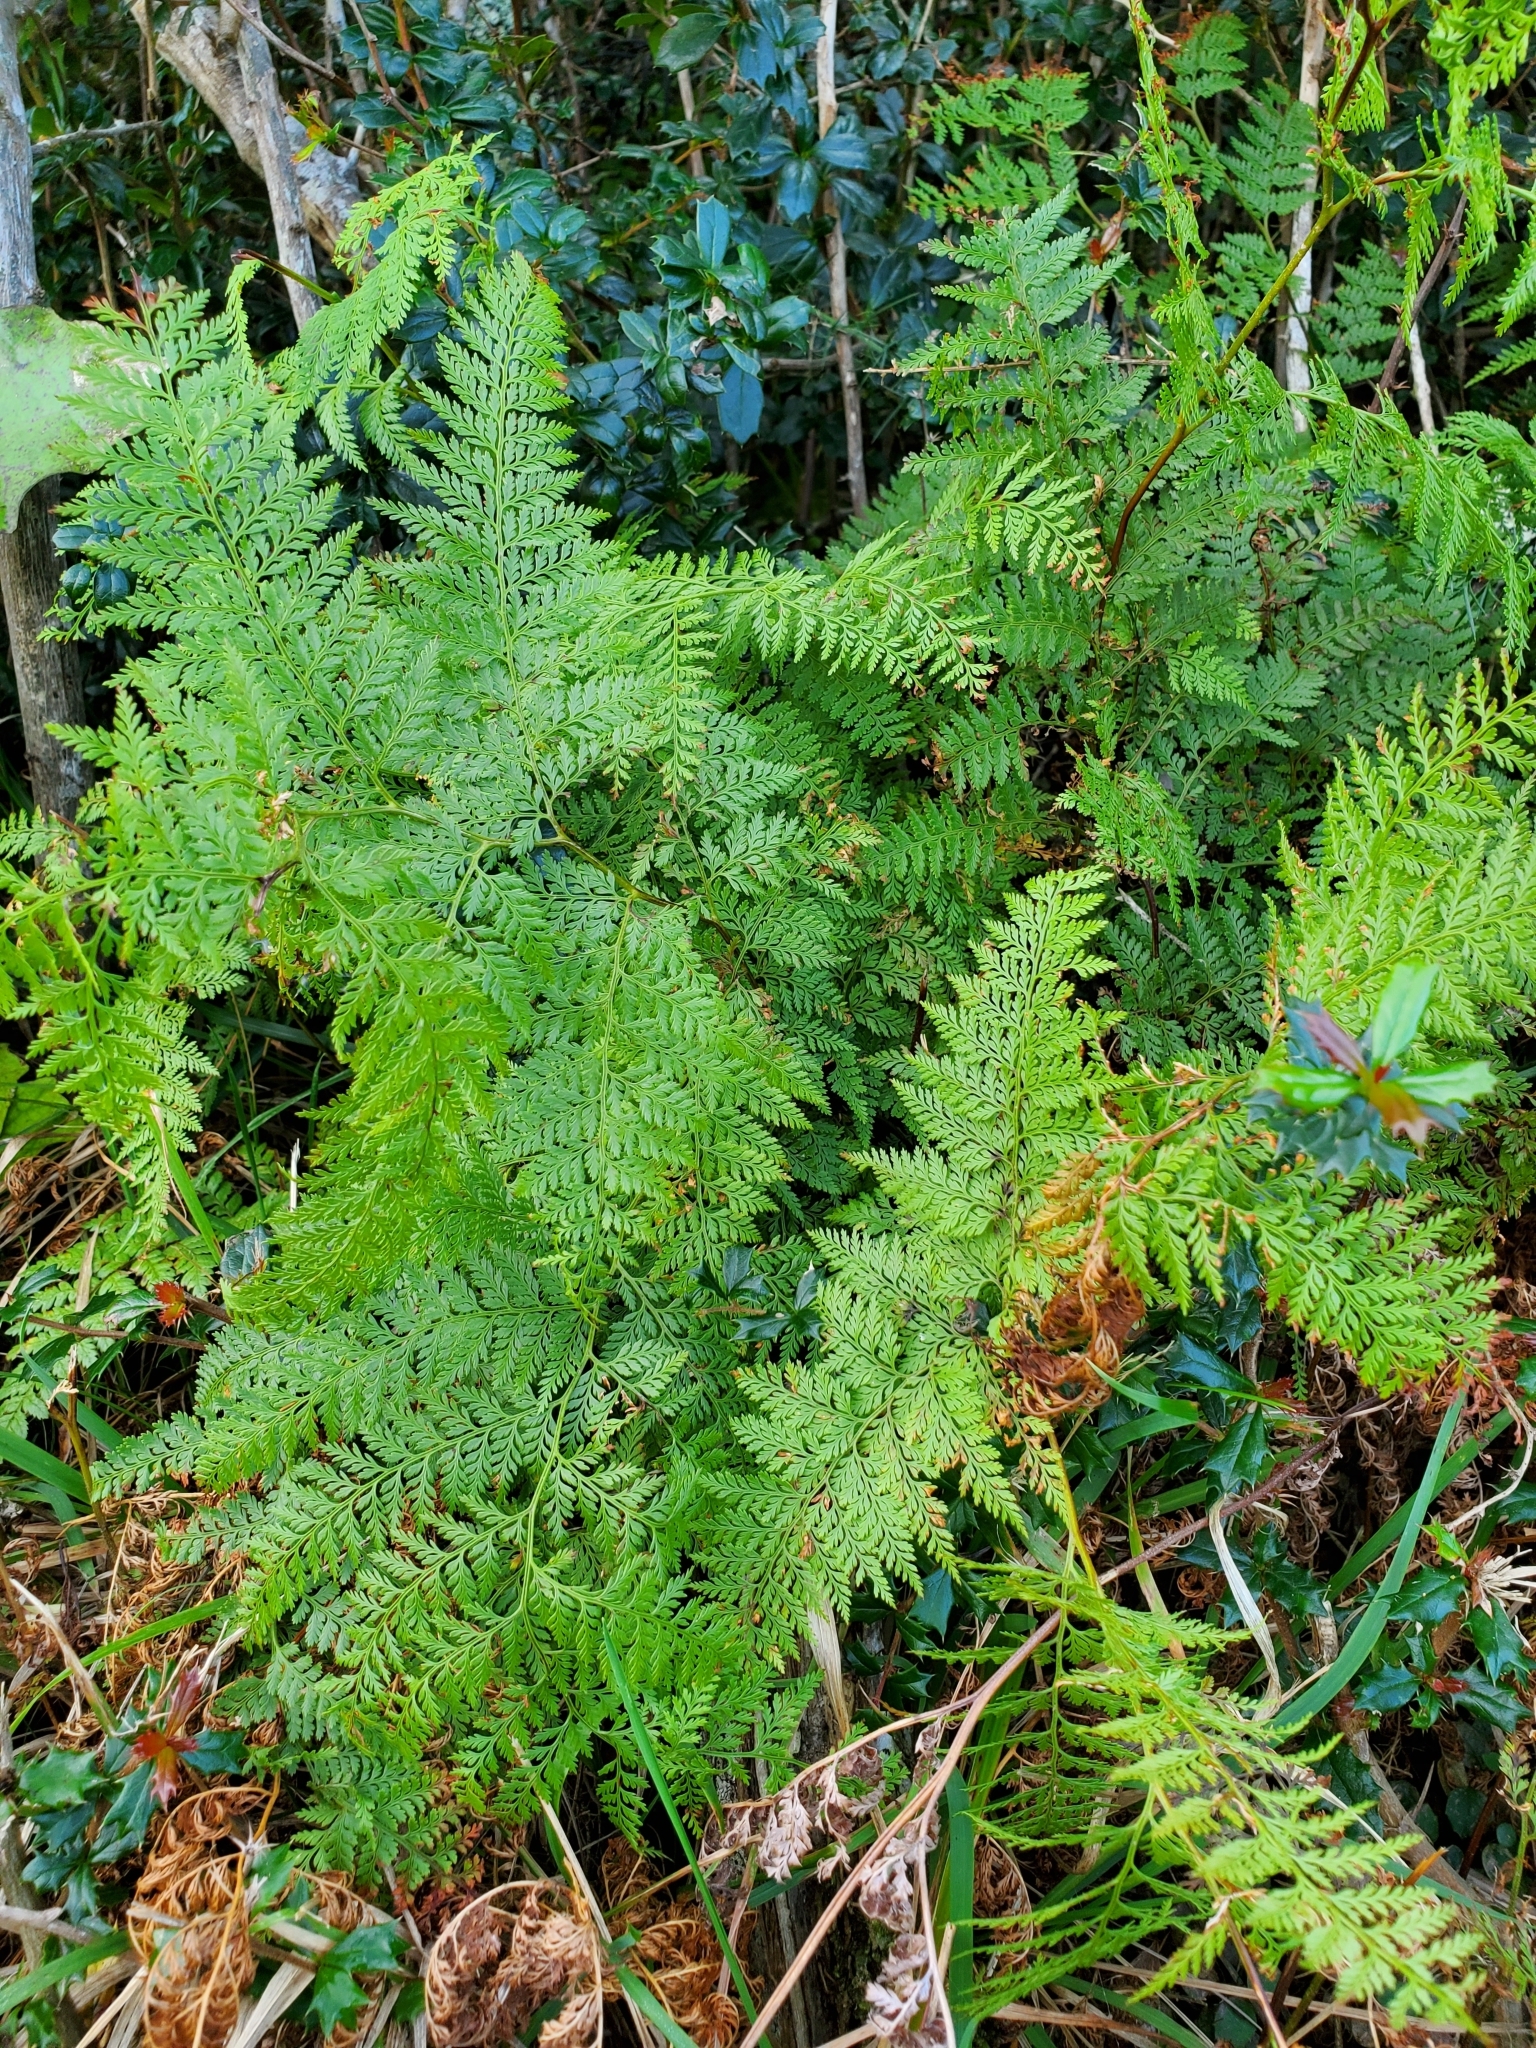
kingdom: Plantae
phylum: Tracheophyta
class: Polypodiopsida
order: Polypodiales
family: Dennstaedtiaceae
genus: Paesia
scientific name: Paesia scaberula
